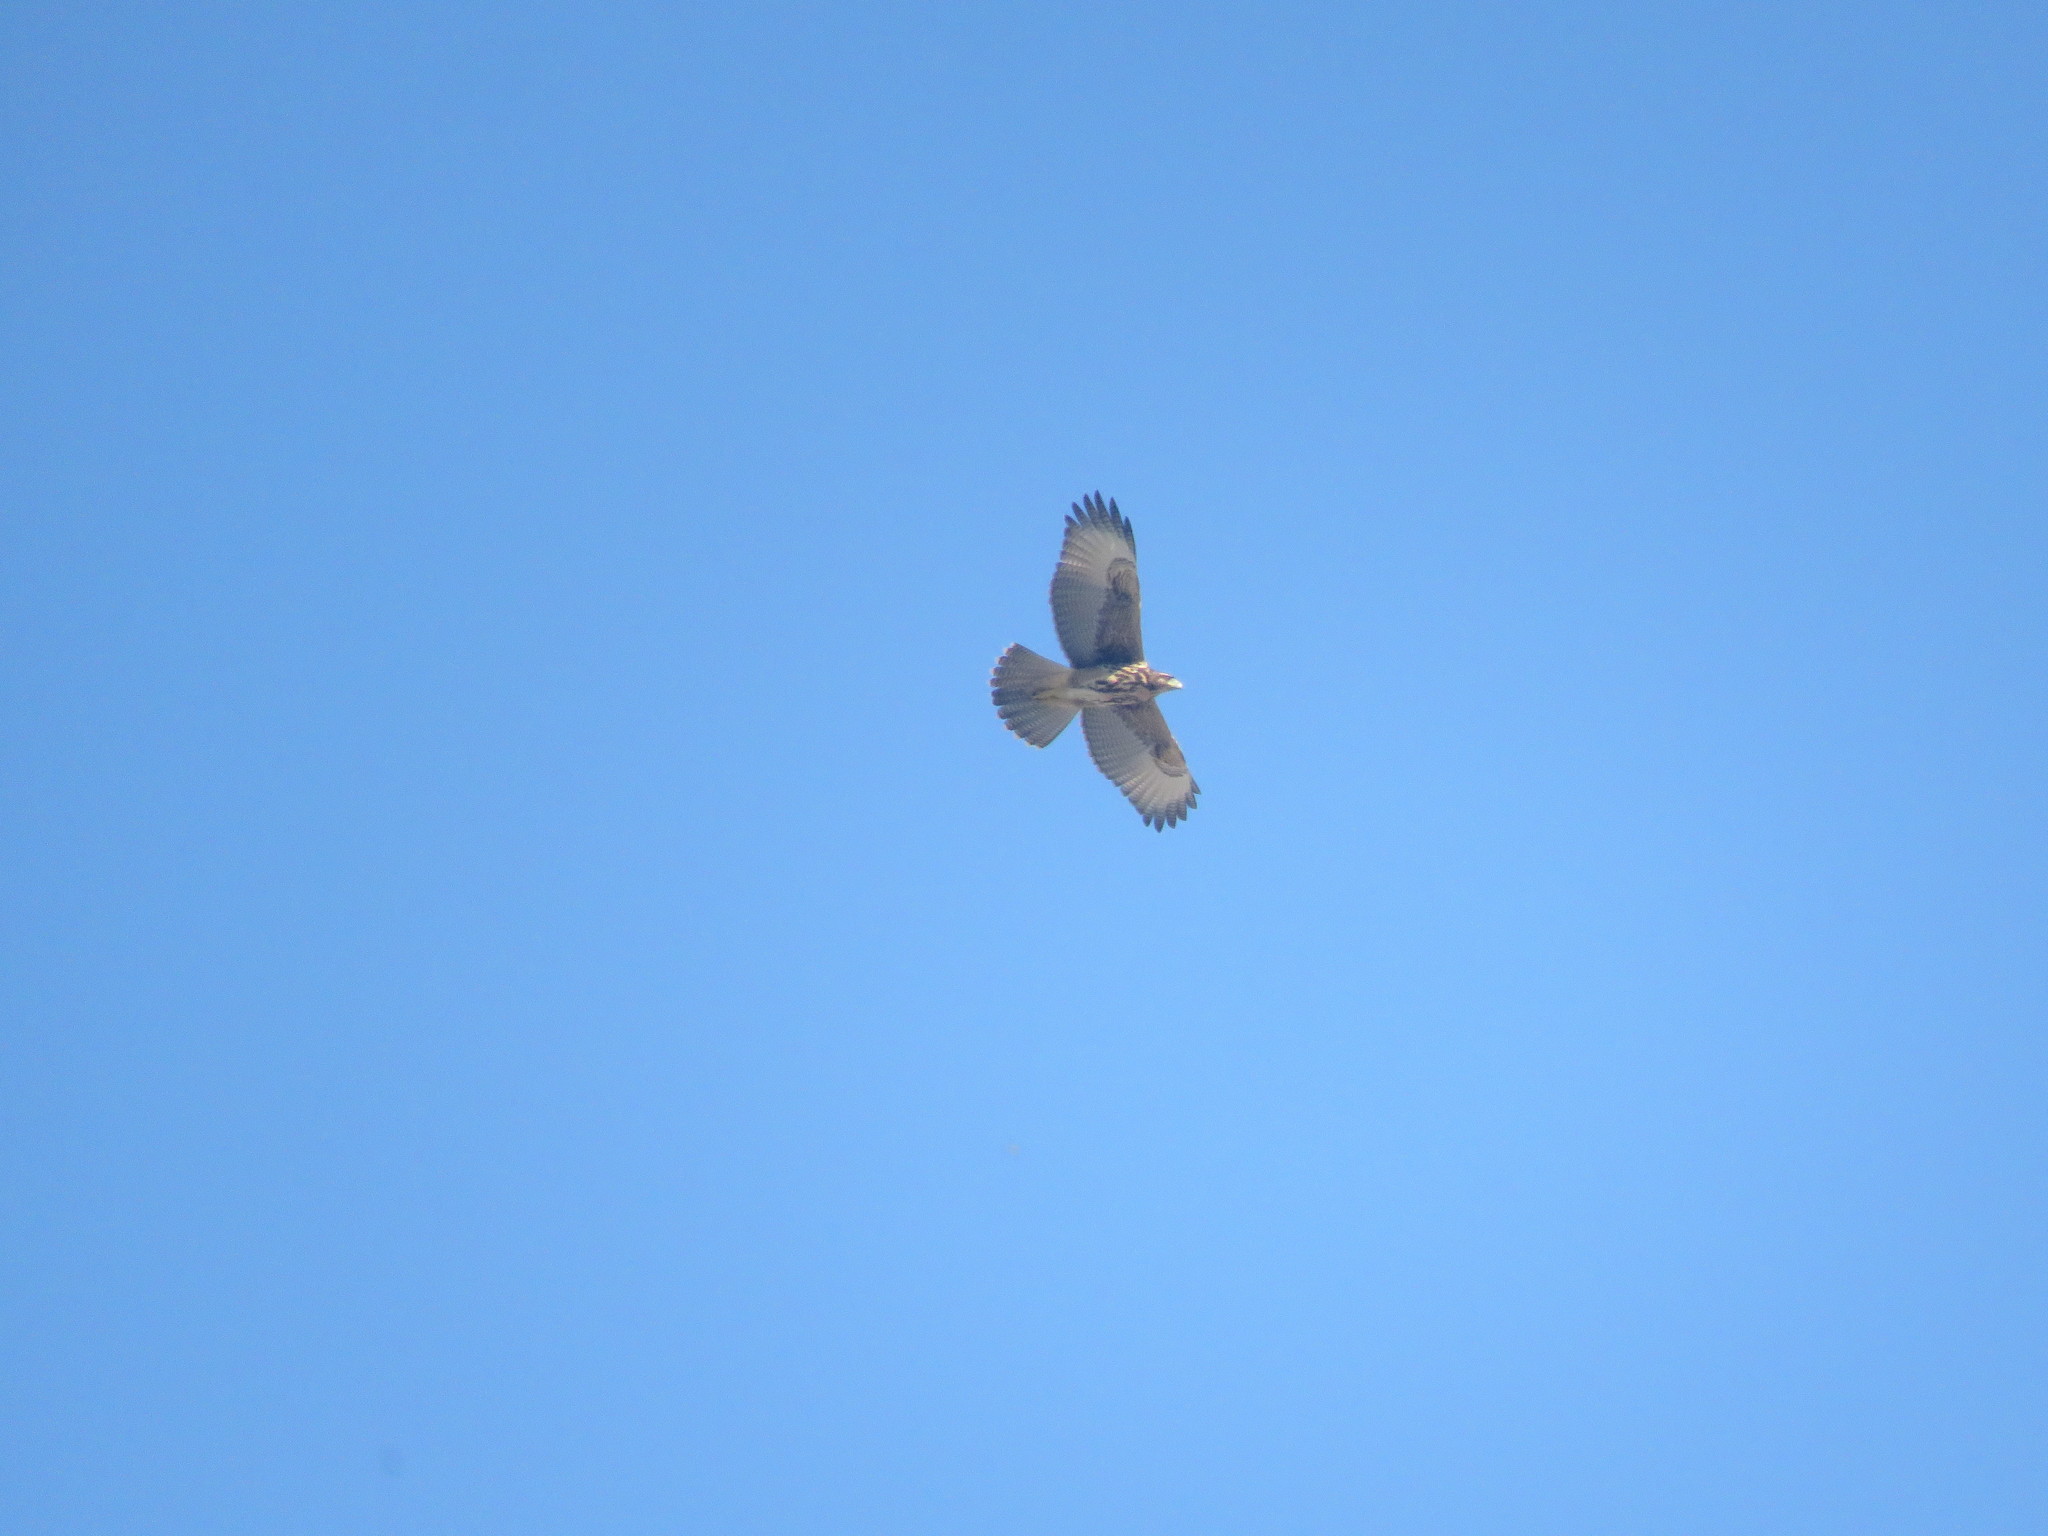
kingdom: Animalia
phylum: Chordata
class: Aves
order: Accipitriformes
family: Accipitridae
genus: Parabuteo
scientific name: Parabuteo unicinctus
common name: Harris's hawk
